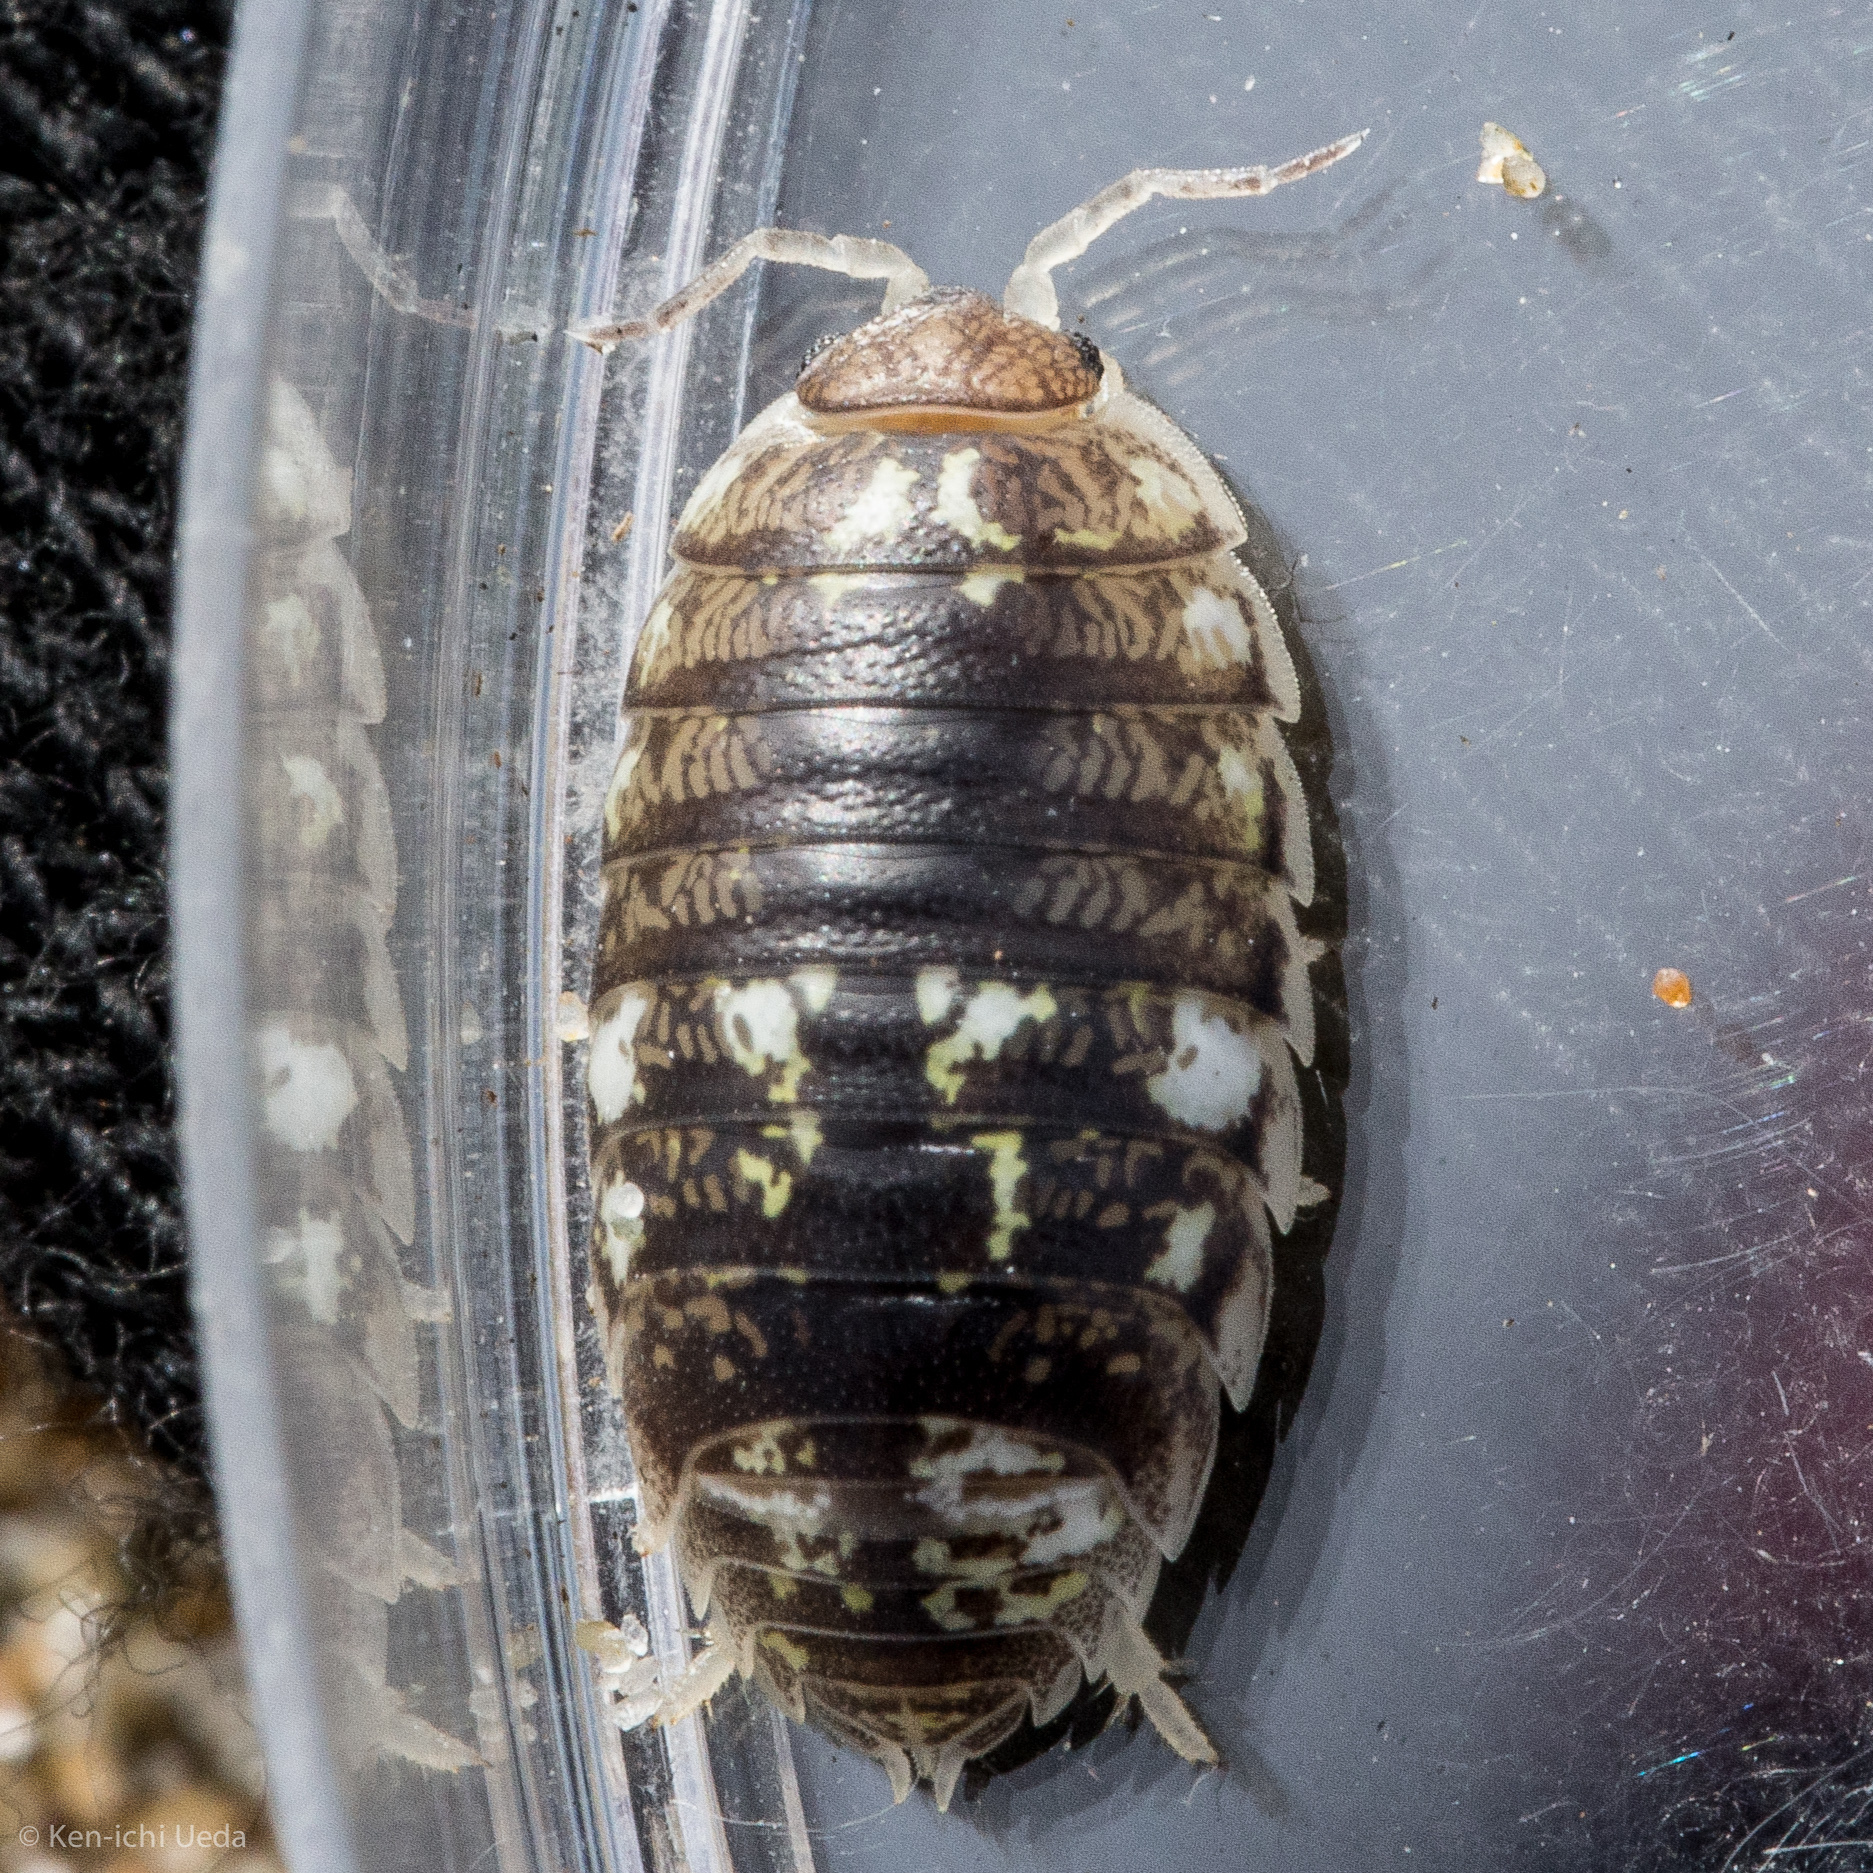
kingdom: Animalia
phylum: Arthropoda
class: Malacostraca
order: Isopoda
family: Alloniscidae
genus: Alloniscus
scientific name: Alloniscus perconvexus
